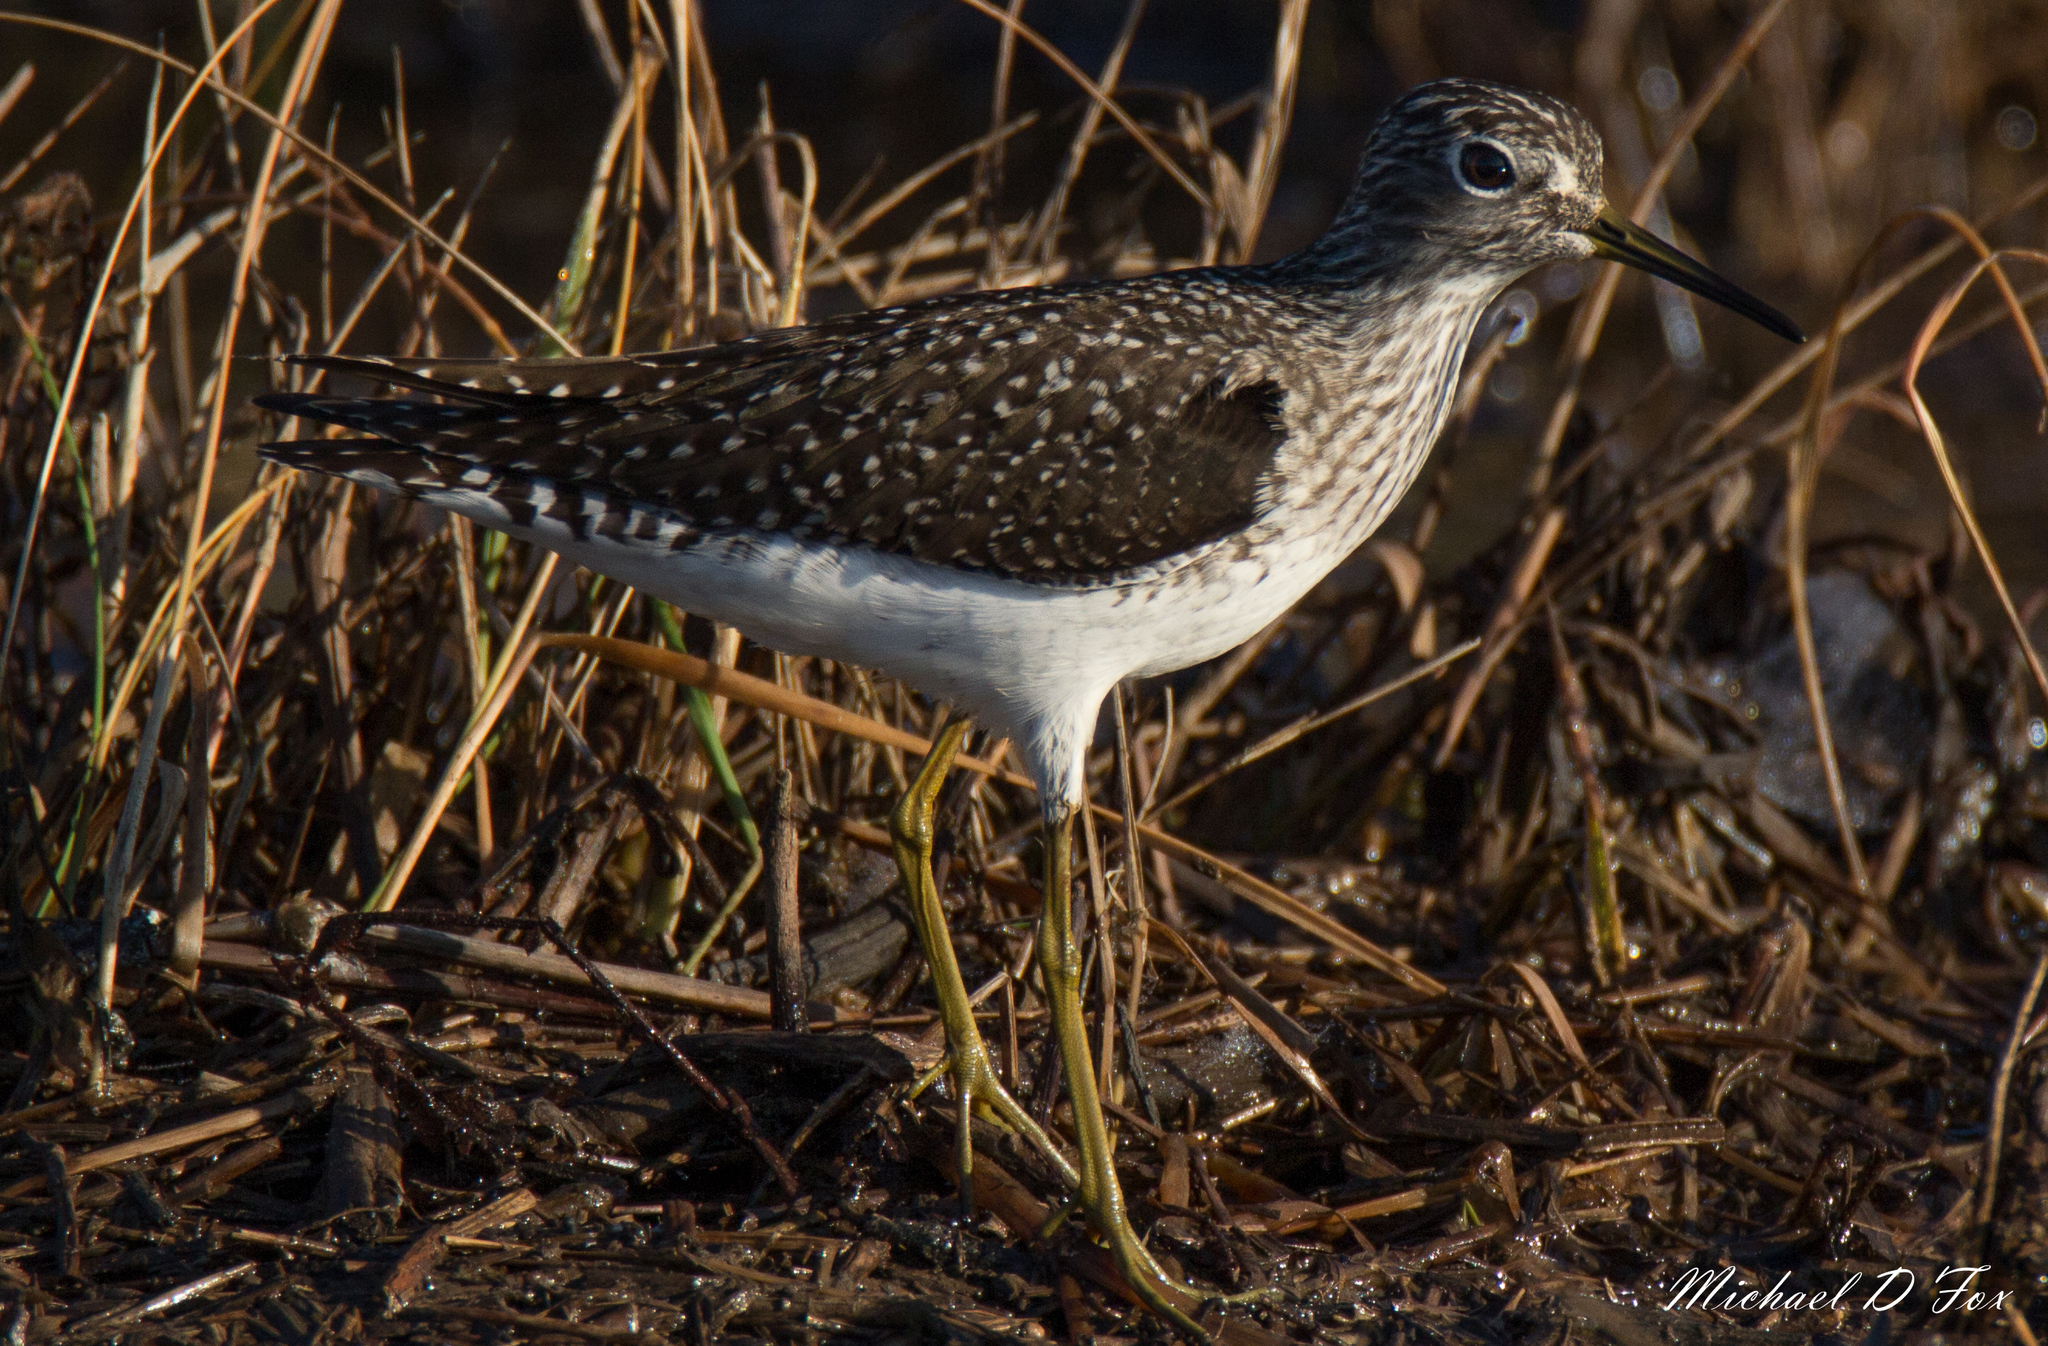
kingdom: Animalia
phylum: Chordata
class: Aves
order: Charadriiformes
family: Scolopacidae
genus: Tringa
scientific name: Tringa solitaria
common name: Solitary sandpiper
